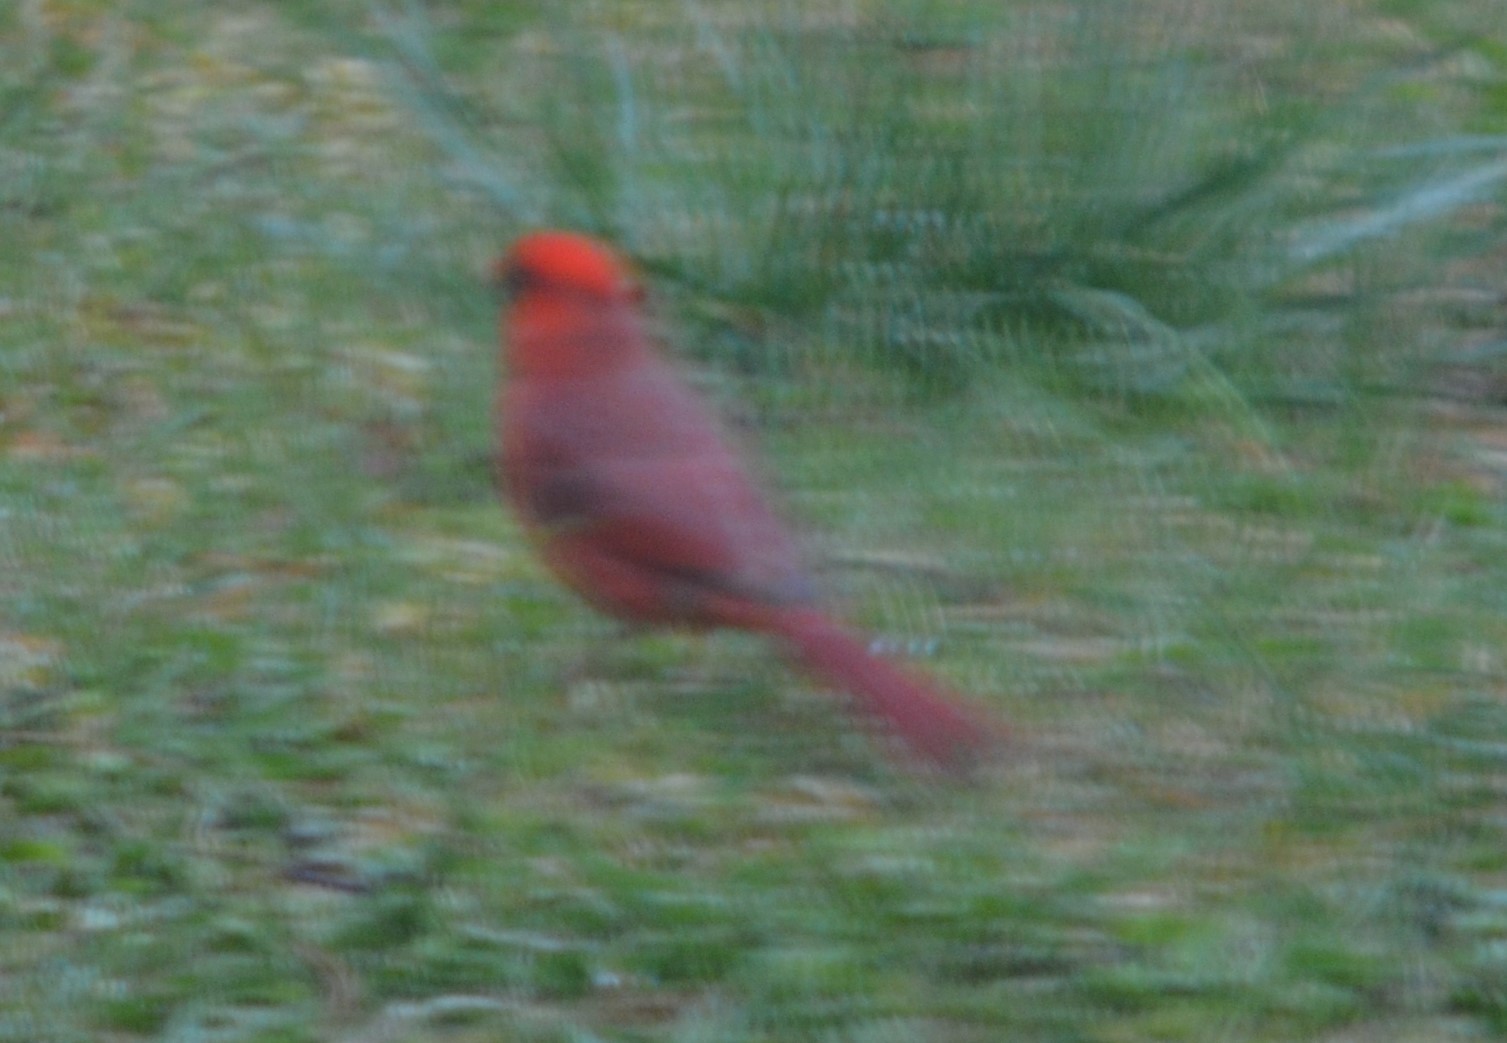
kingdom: Animalia
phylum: Chordata
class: Aves
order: Passeriformes
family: Cardinalidae
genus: Cardinalis
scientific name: Cardinalis cardinalis
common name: Northern cardinal
